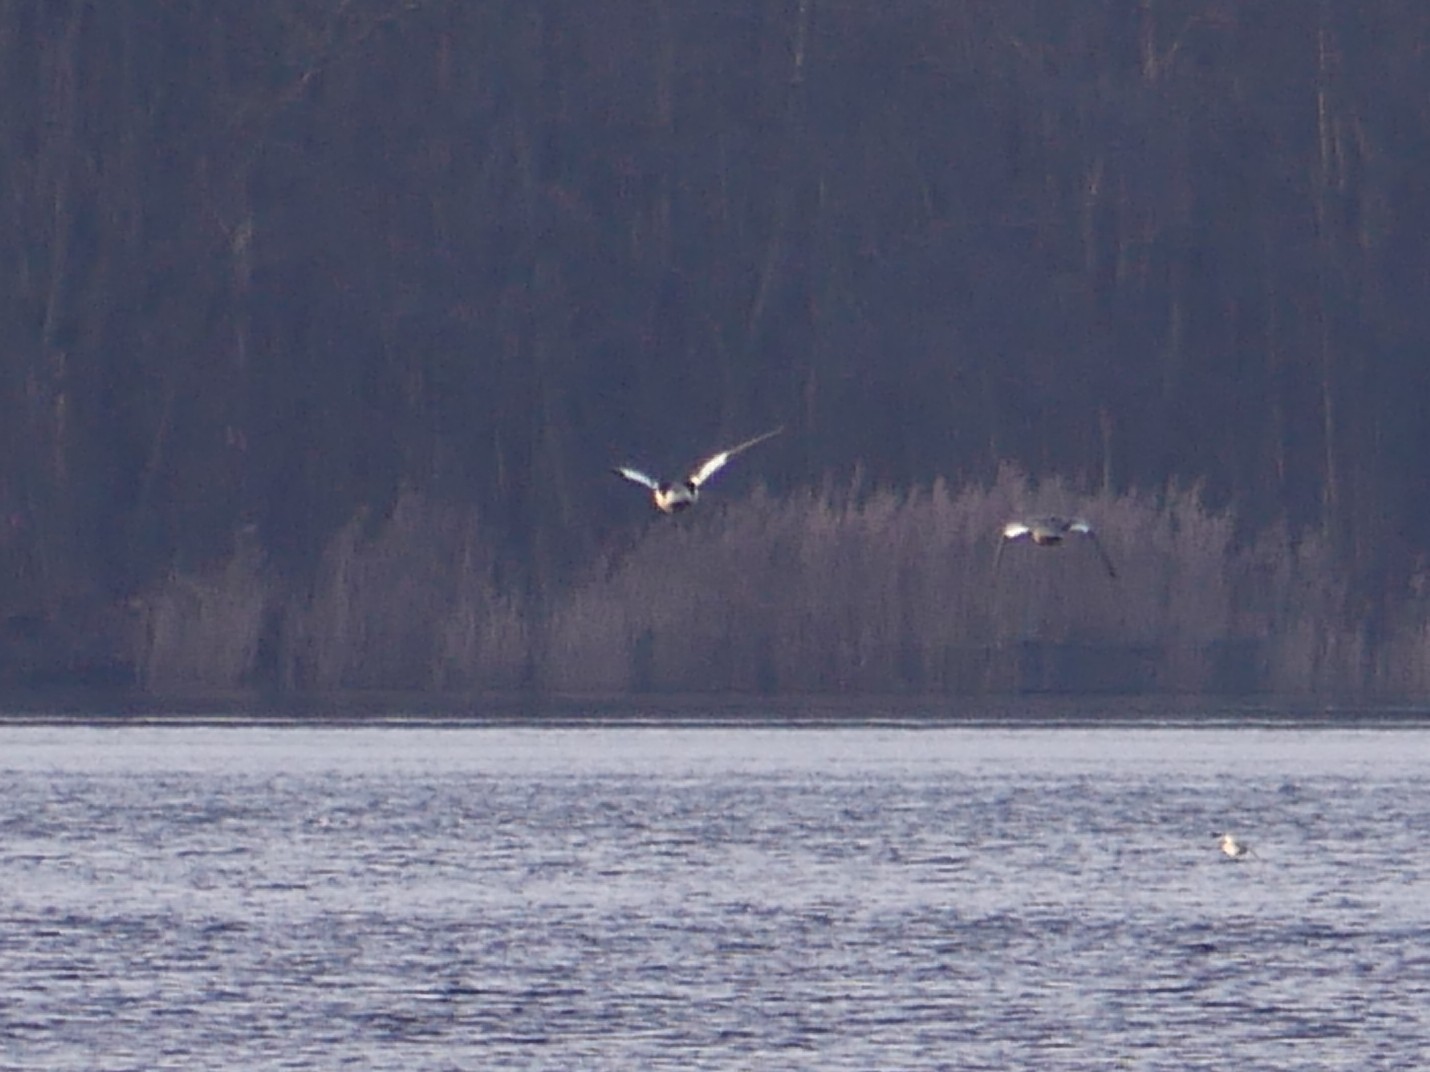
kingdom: Animalia
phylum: Chordata
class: Aves
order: Anseriformes
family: Anatidae
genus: Mergus
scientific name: Mergus merganser
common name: Common merganser
